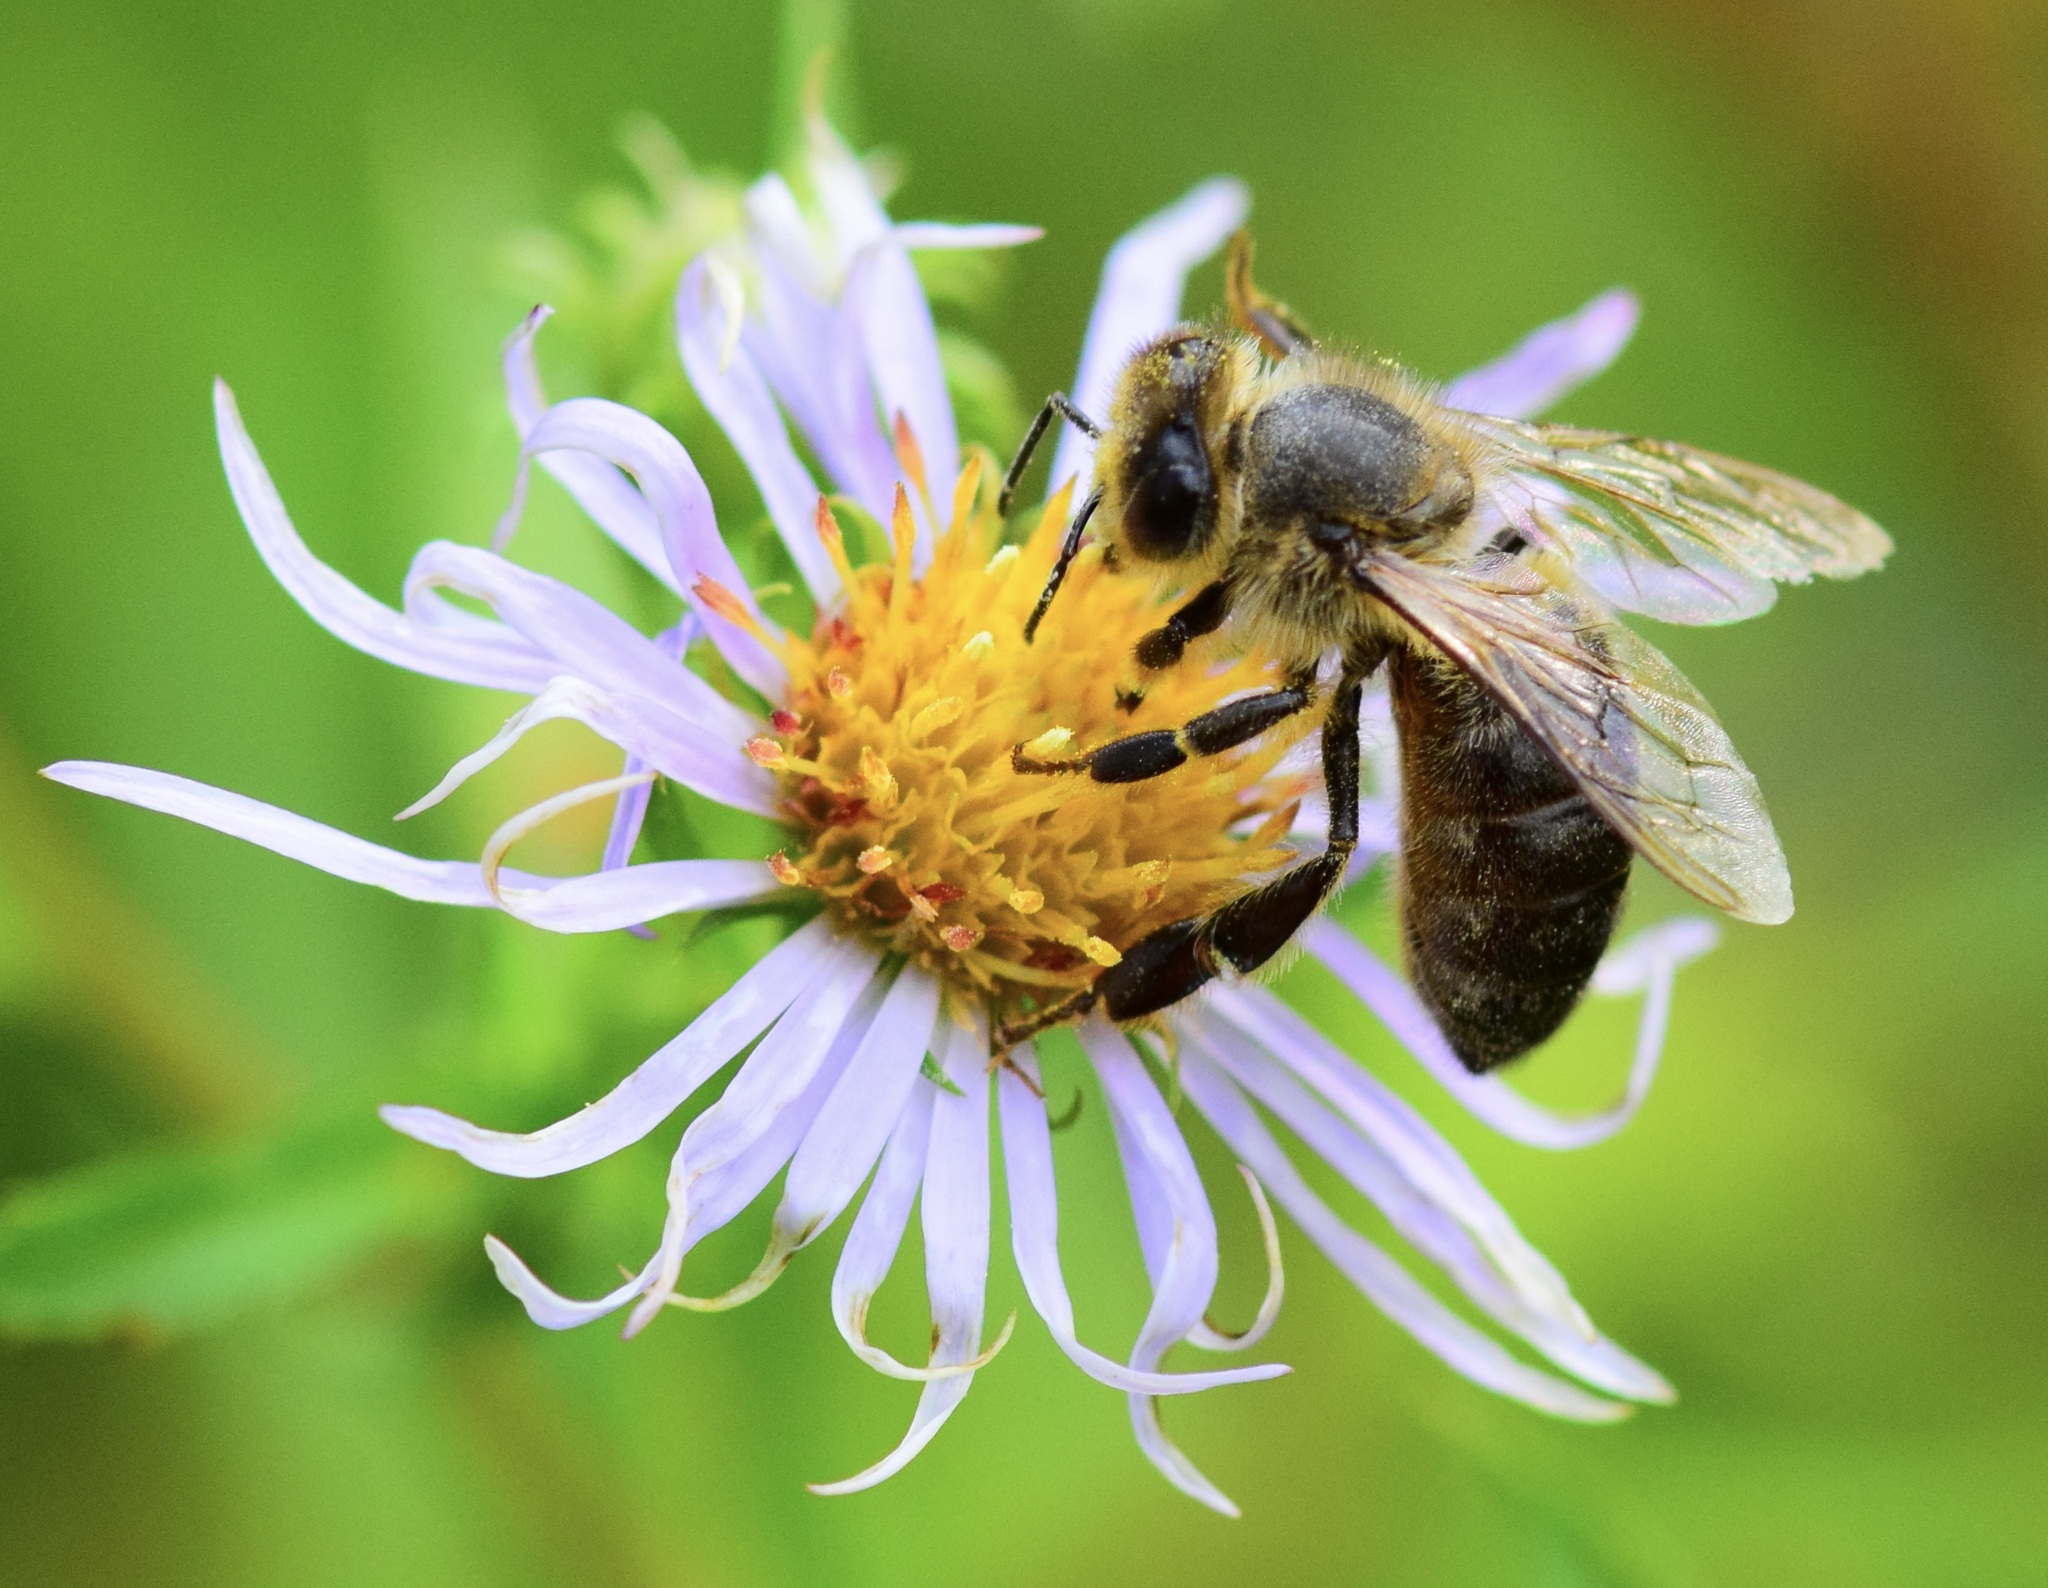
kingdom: Animalia
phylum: Arthropoda
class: Insecta
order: Hymenoptera
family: Apidae
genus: Apis
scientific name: Apis mellifera
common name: Honey bee
